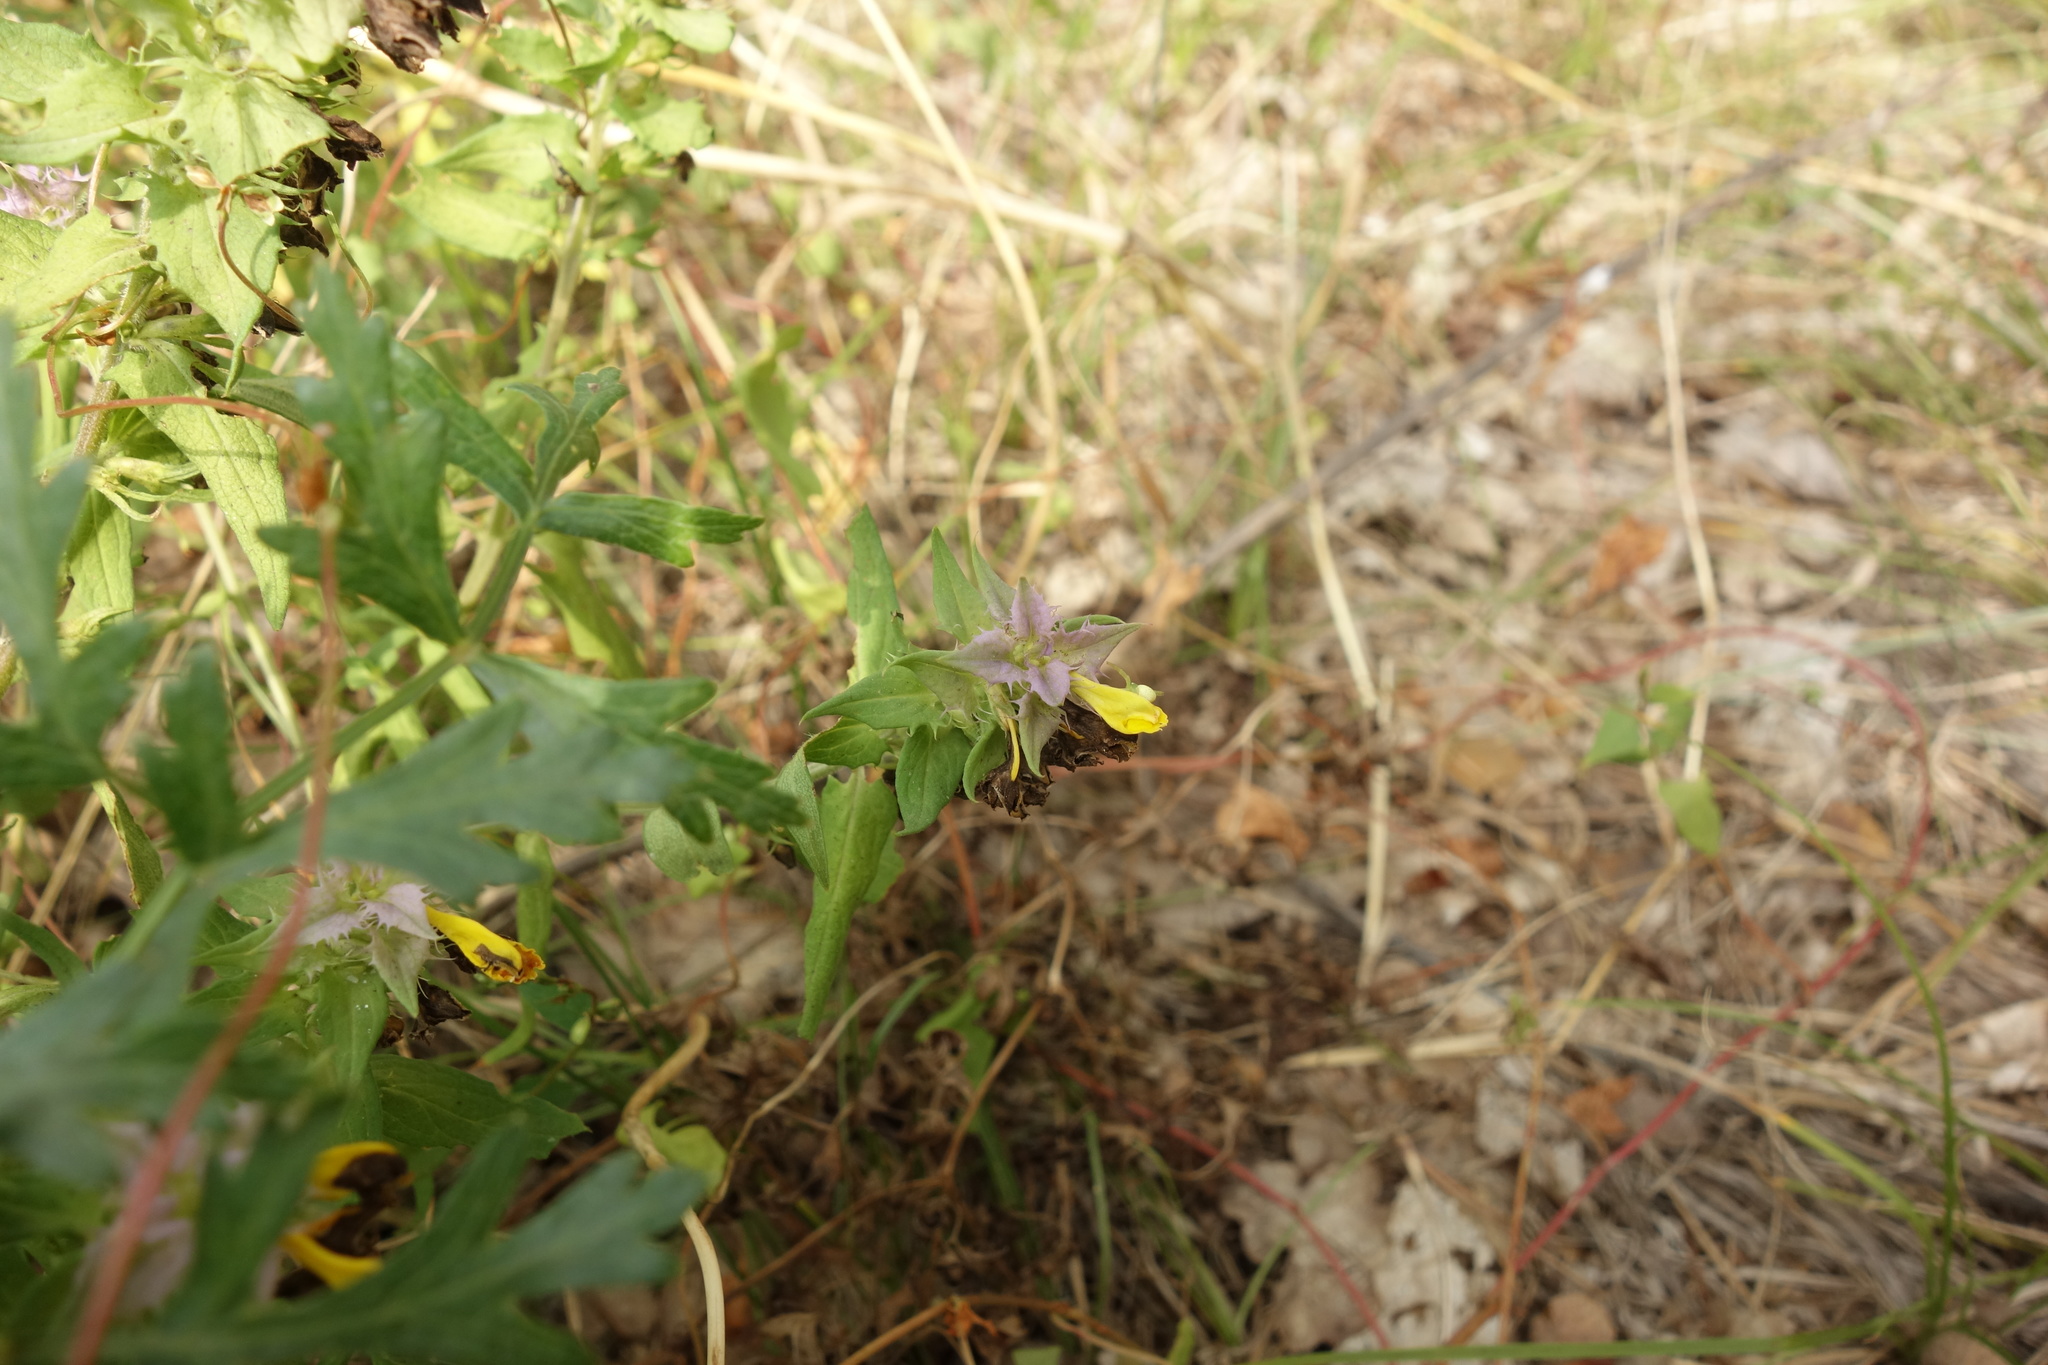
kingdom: Plantae
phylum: Tracheophyta
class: Magnoliopsida
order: Lamiales
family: Orobanchaceae
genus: Melampyrum
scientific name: Melampyrum nemorosum
